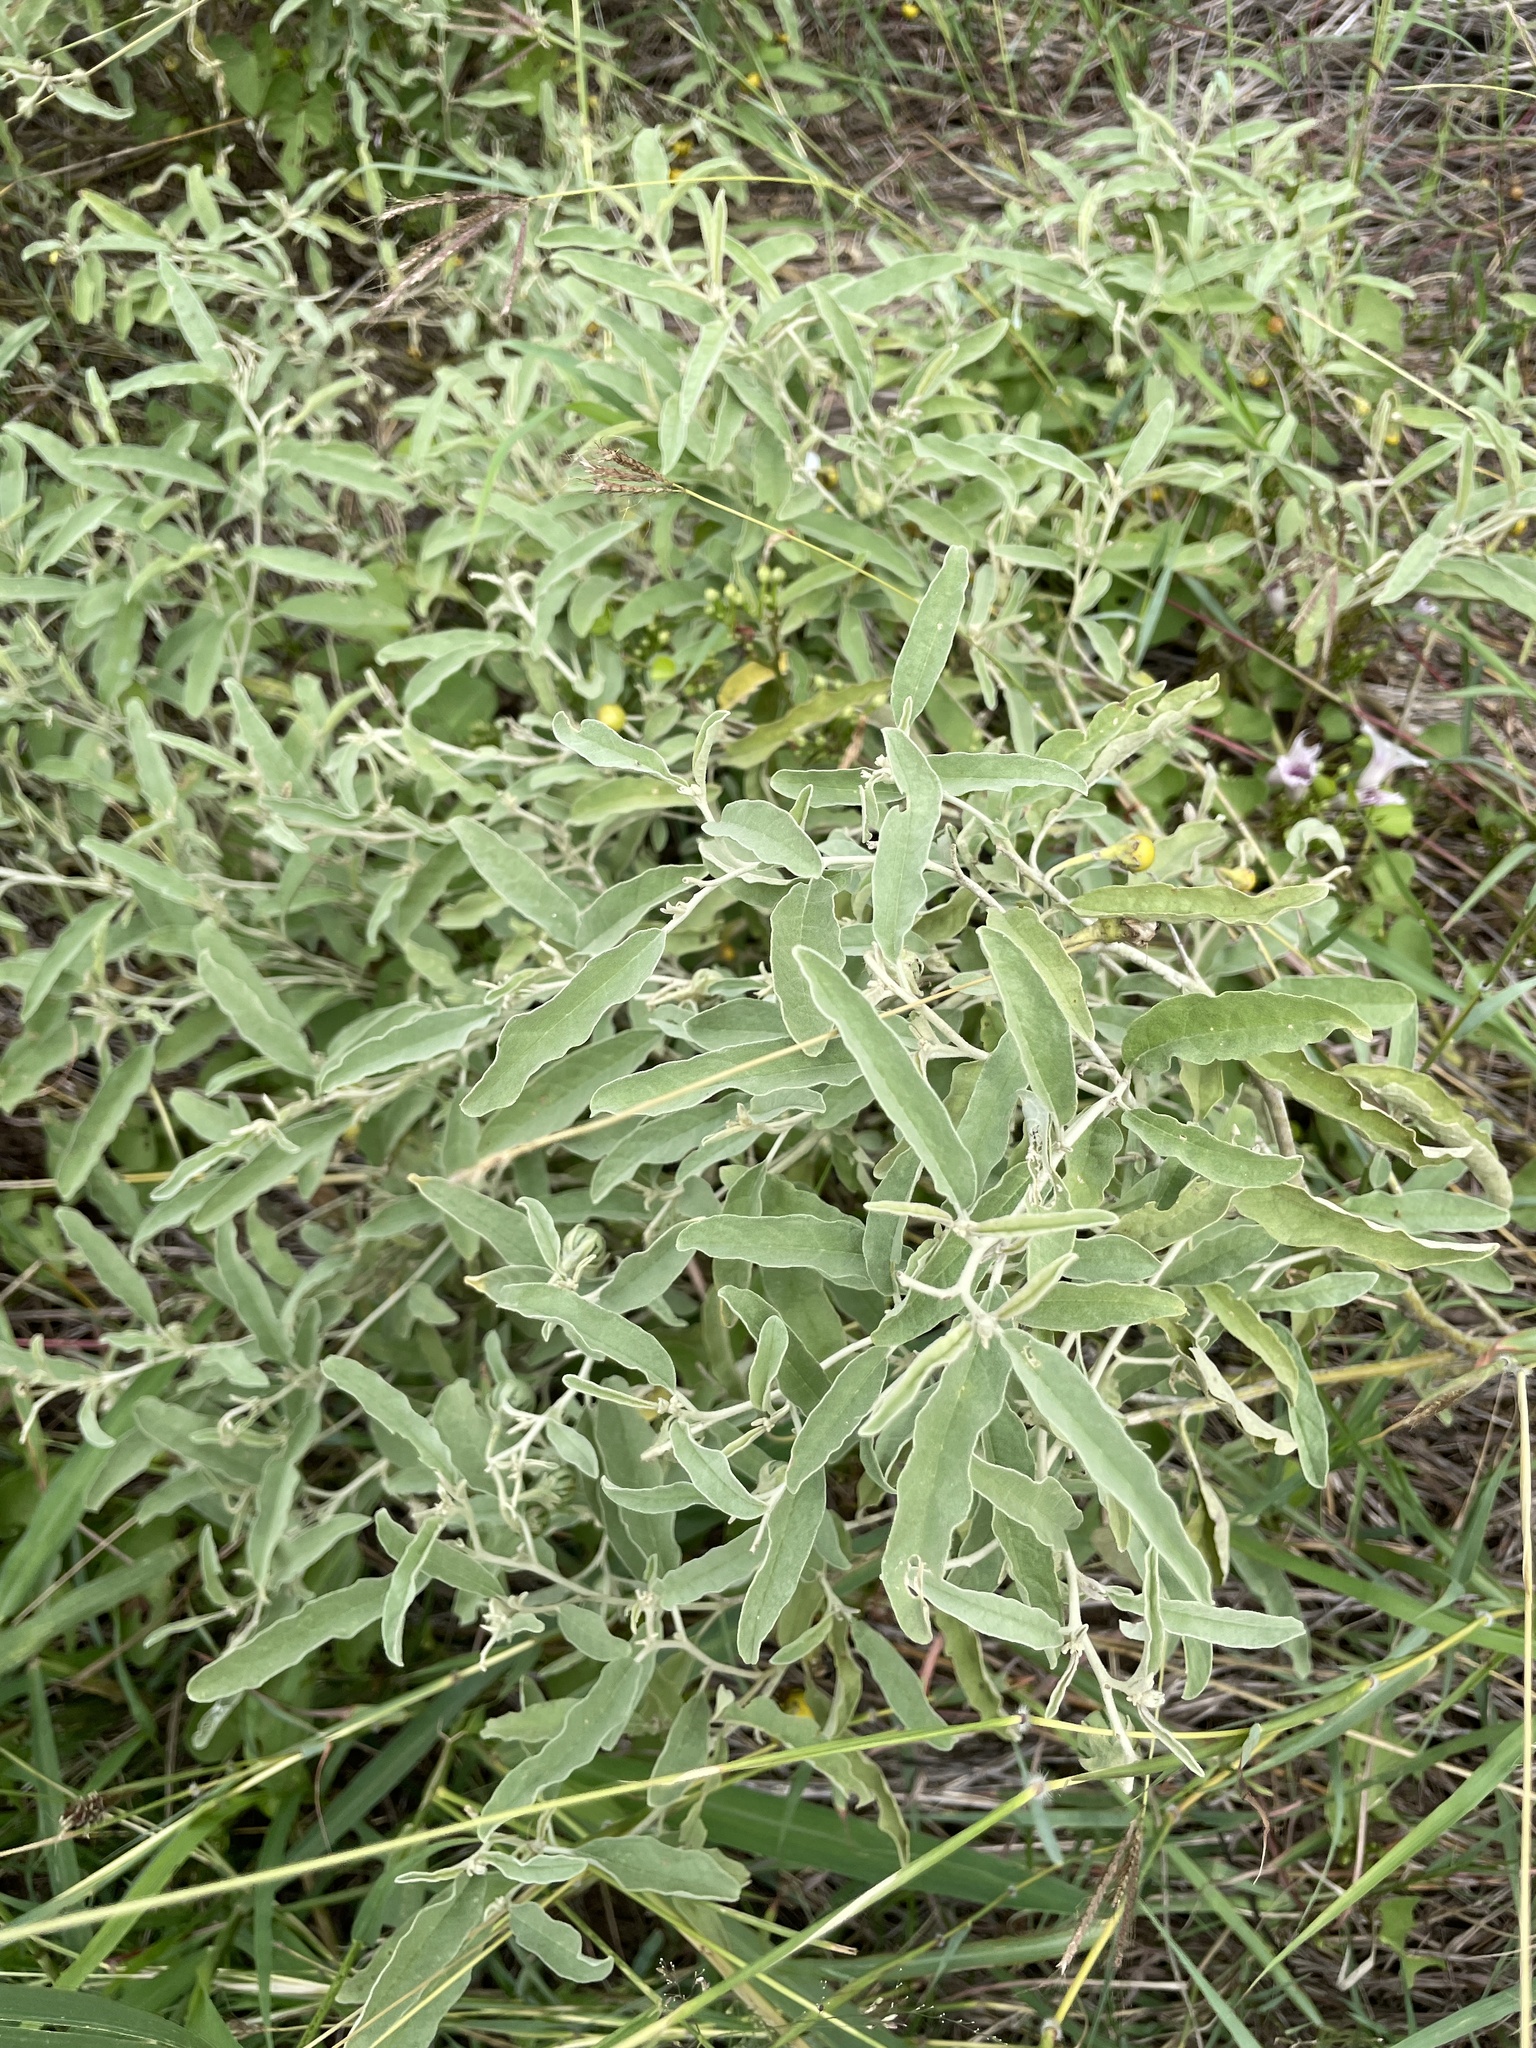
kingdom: Plantae
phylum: Tracheophyta
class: Magnoliopsida
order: Solanales
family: Solanaceae
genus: Solanum
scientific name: Solanum elaeagnifolium
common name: Silverleaf nightshade
